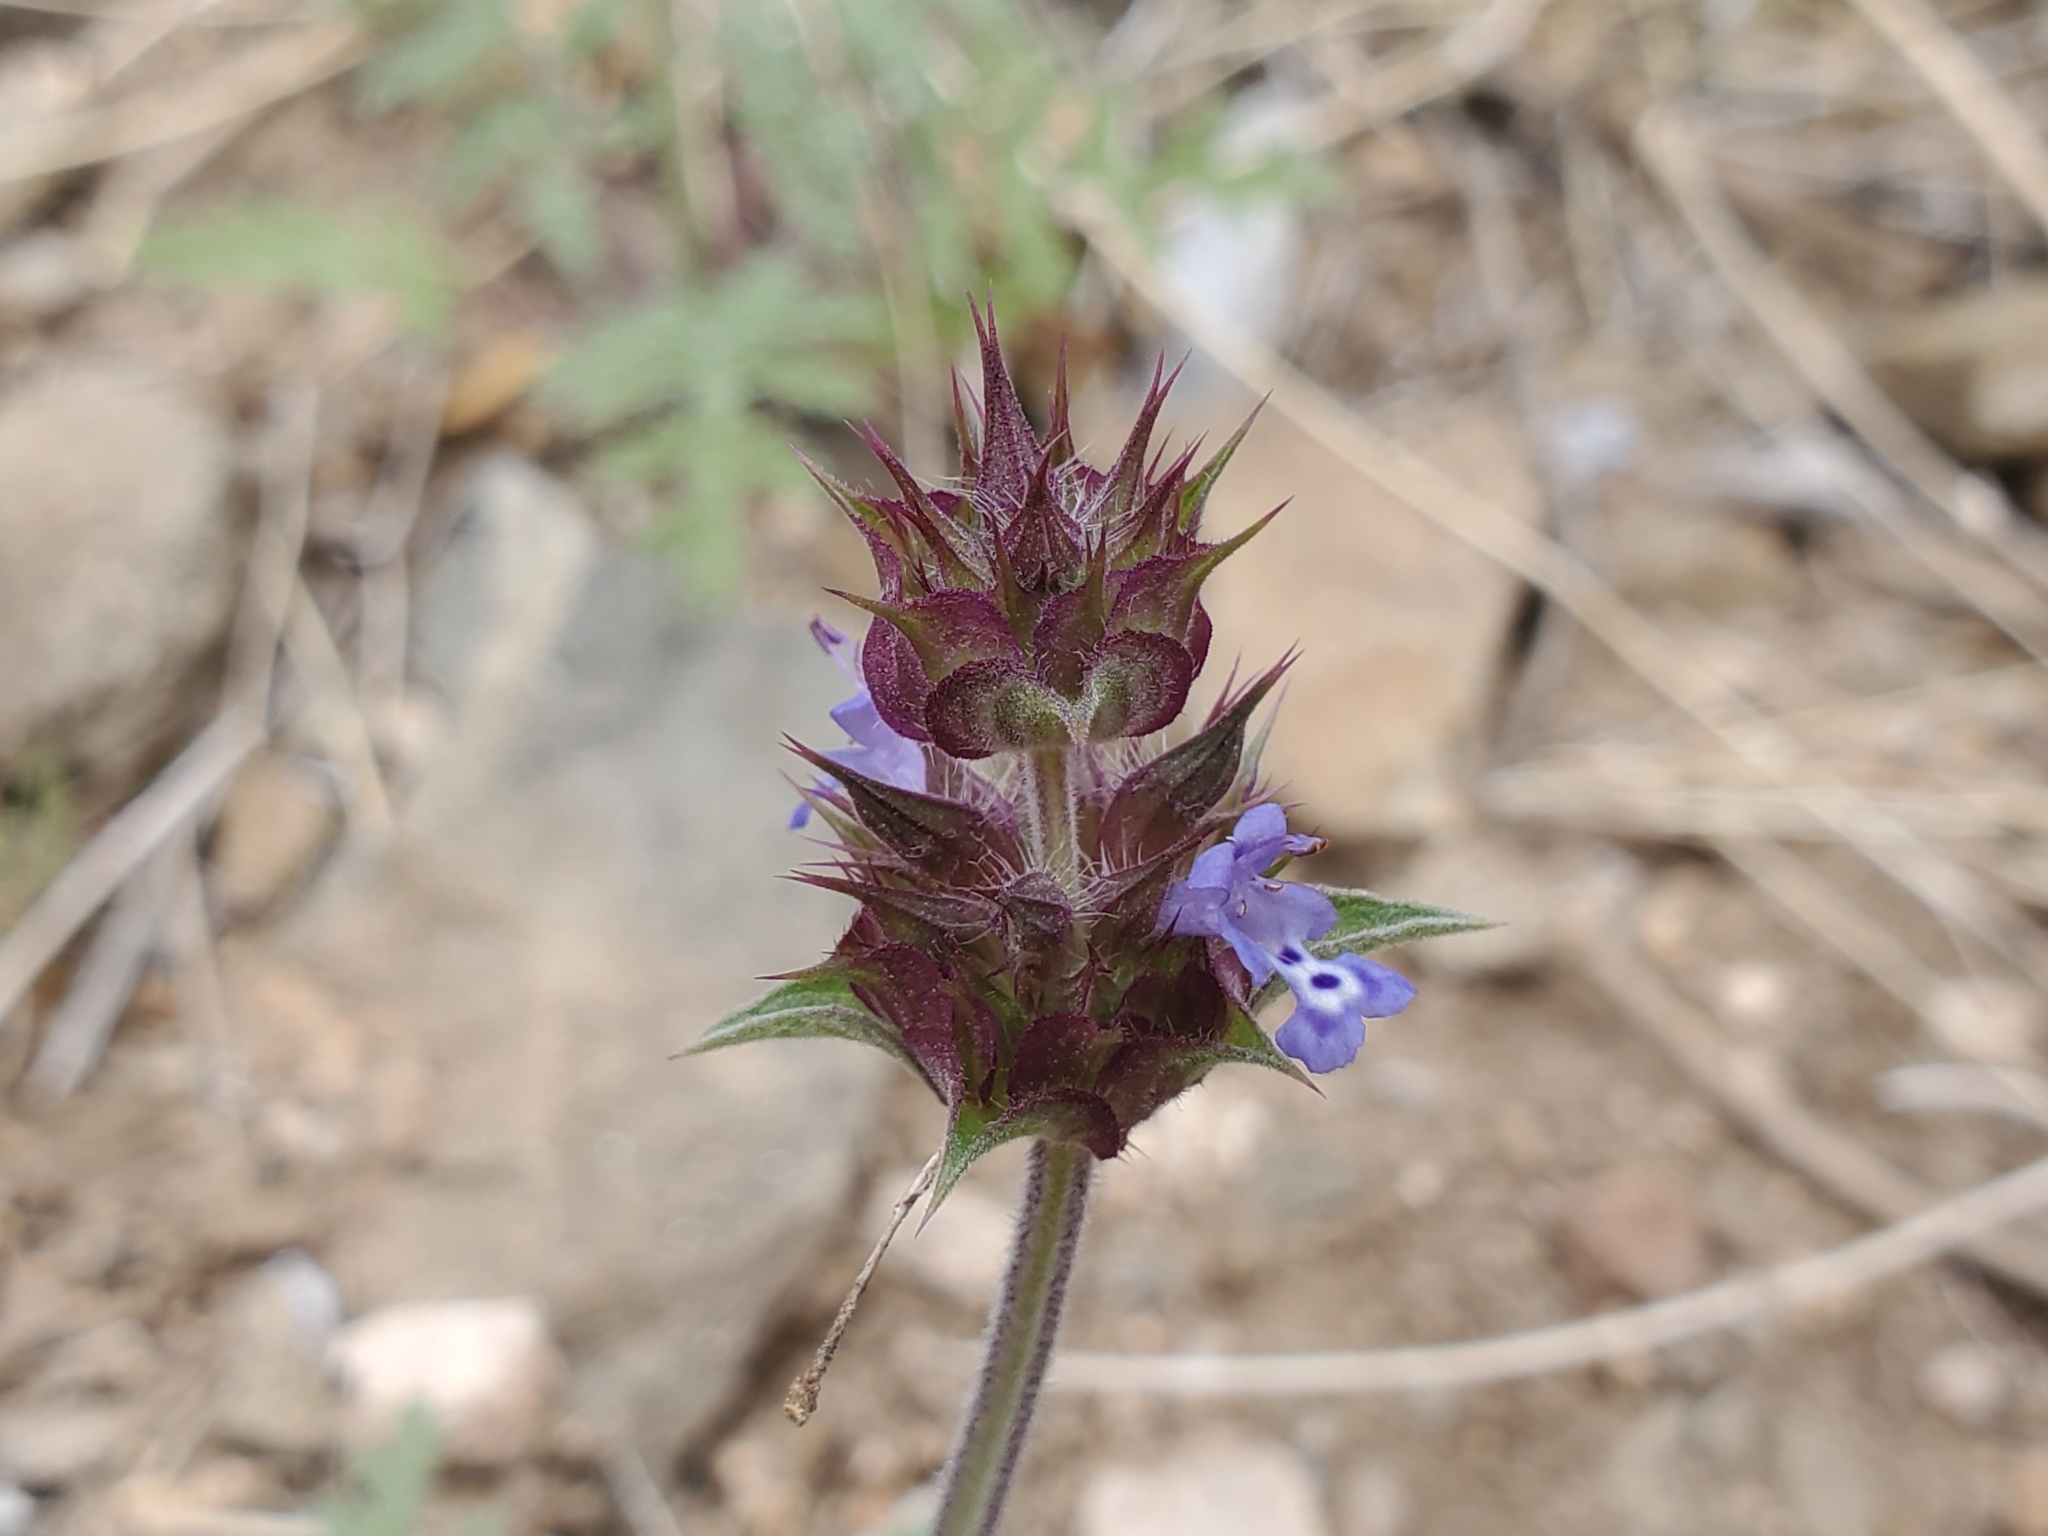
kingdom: Plantae
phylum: Tracheophyta
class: Magnoliopsida
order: Lamiales
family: Lamiaceae
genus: Salvia
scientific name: Salvia columbariae
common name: Chia
